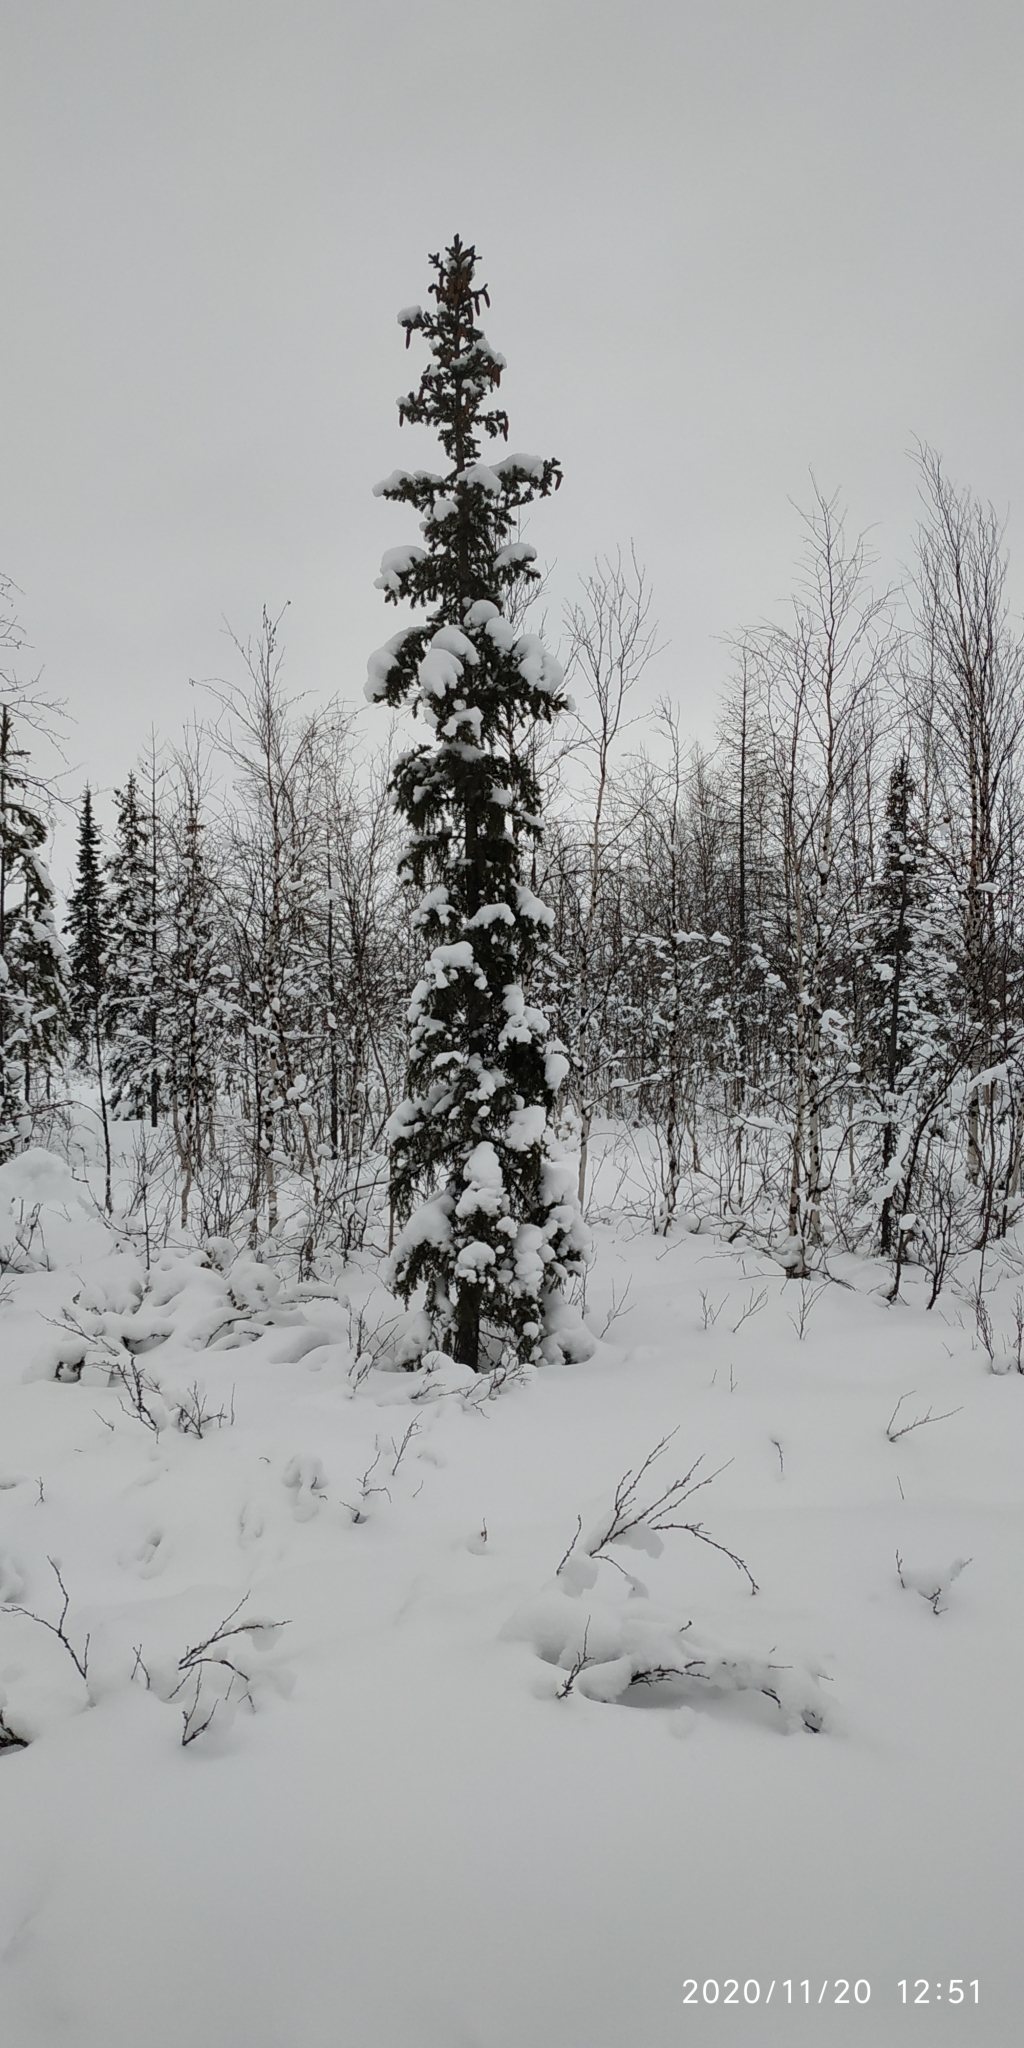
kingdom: Plantae
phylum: Tracheophyta
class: Pinopsida
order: Pinales
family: Pinaceae
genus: Picea
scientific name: Picea obovata
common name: Siberian spruce
